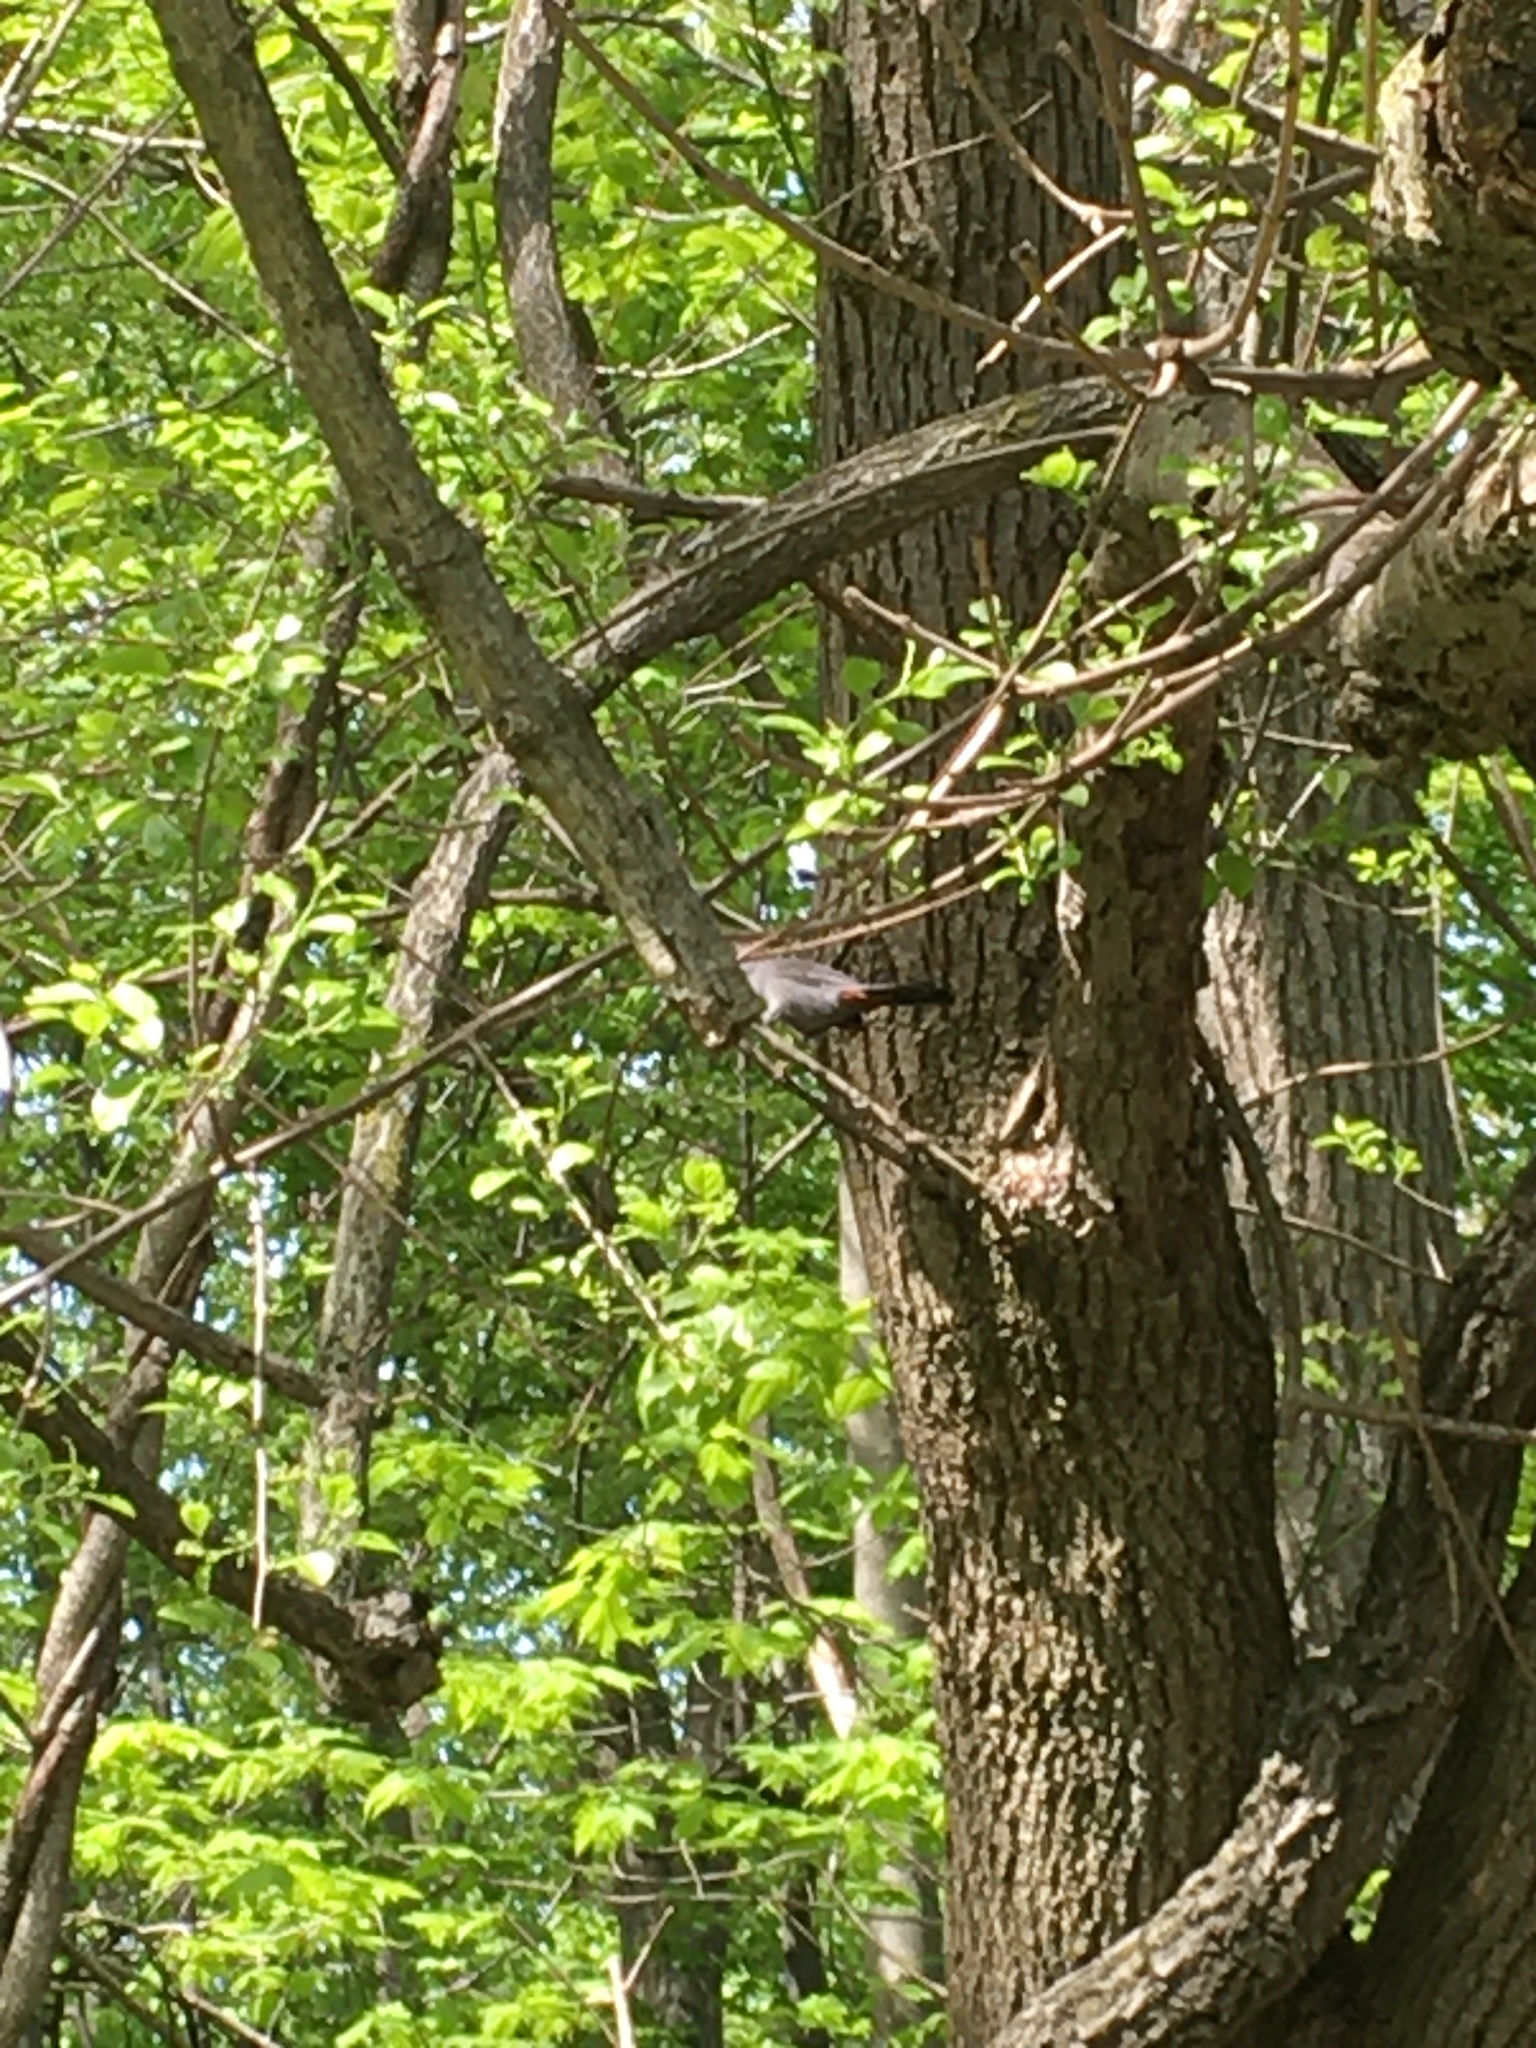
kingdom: Animalia
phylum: Chordata
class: Aves
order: Passeriformes
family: Mimidae
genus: Dumetella
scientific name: Dumetella carolinensis
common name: Gray catbird
